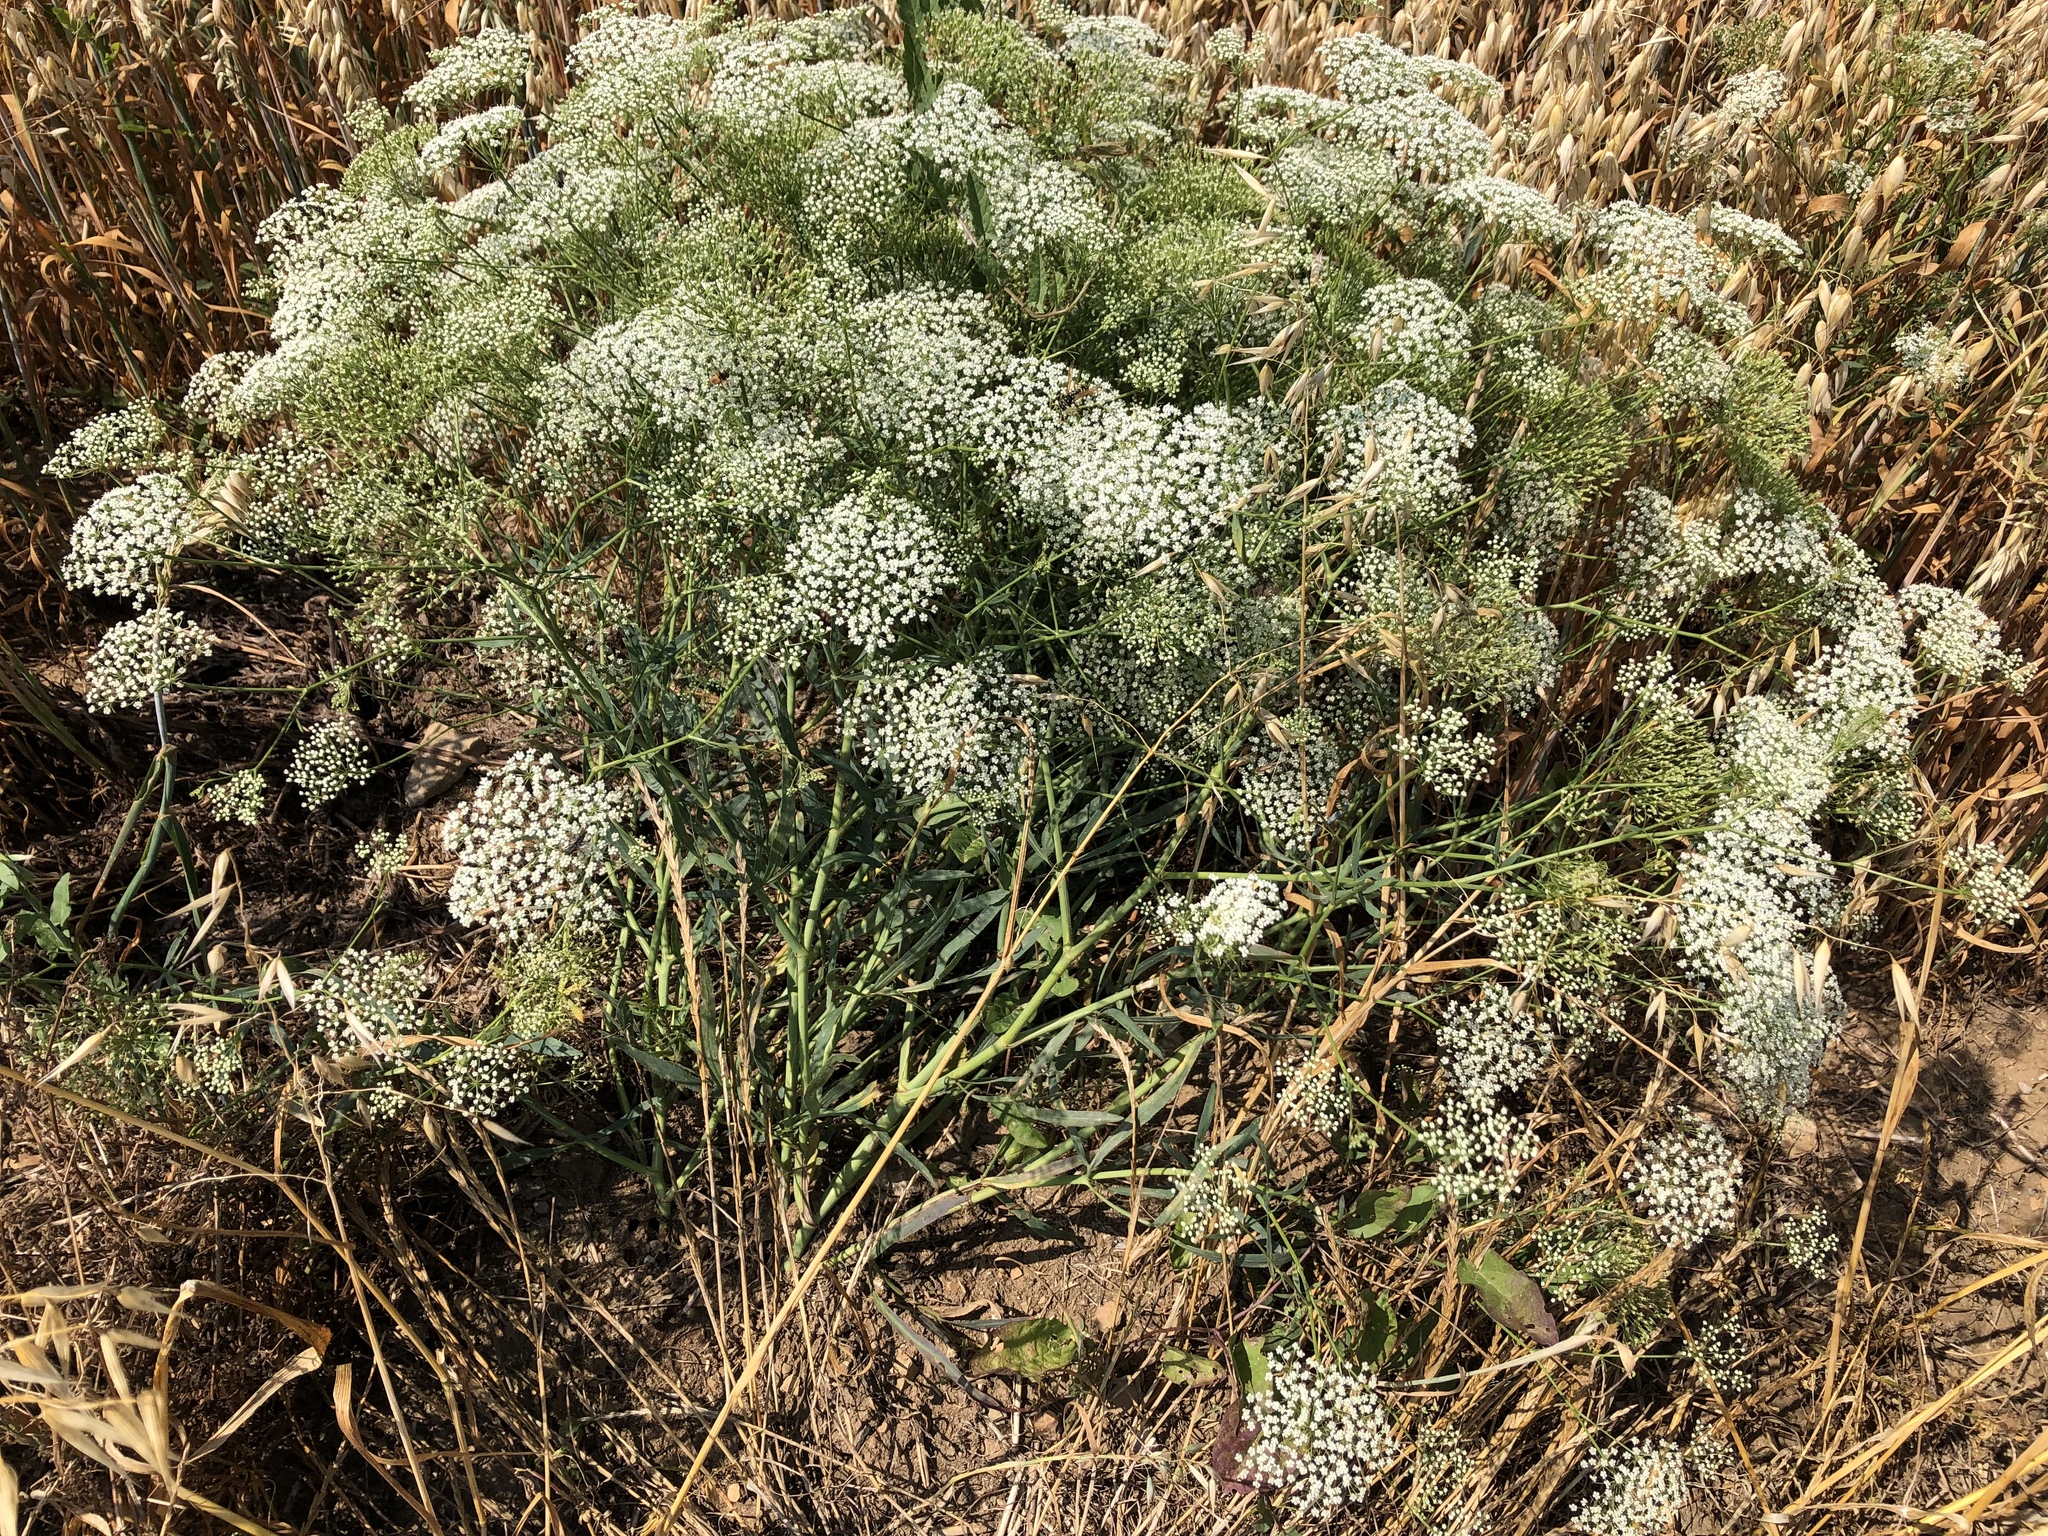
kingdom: Plantae
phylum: Tracheophyta
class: Magnoliopsida
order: Apiales
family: Apiaceae
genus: Falcaria
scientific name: Falcaria vulgaris
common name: Longleaf
